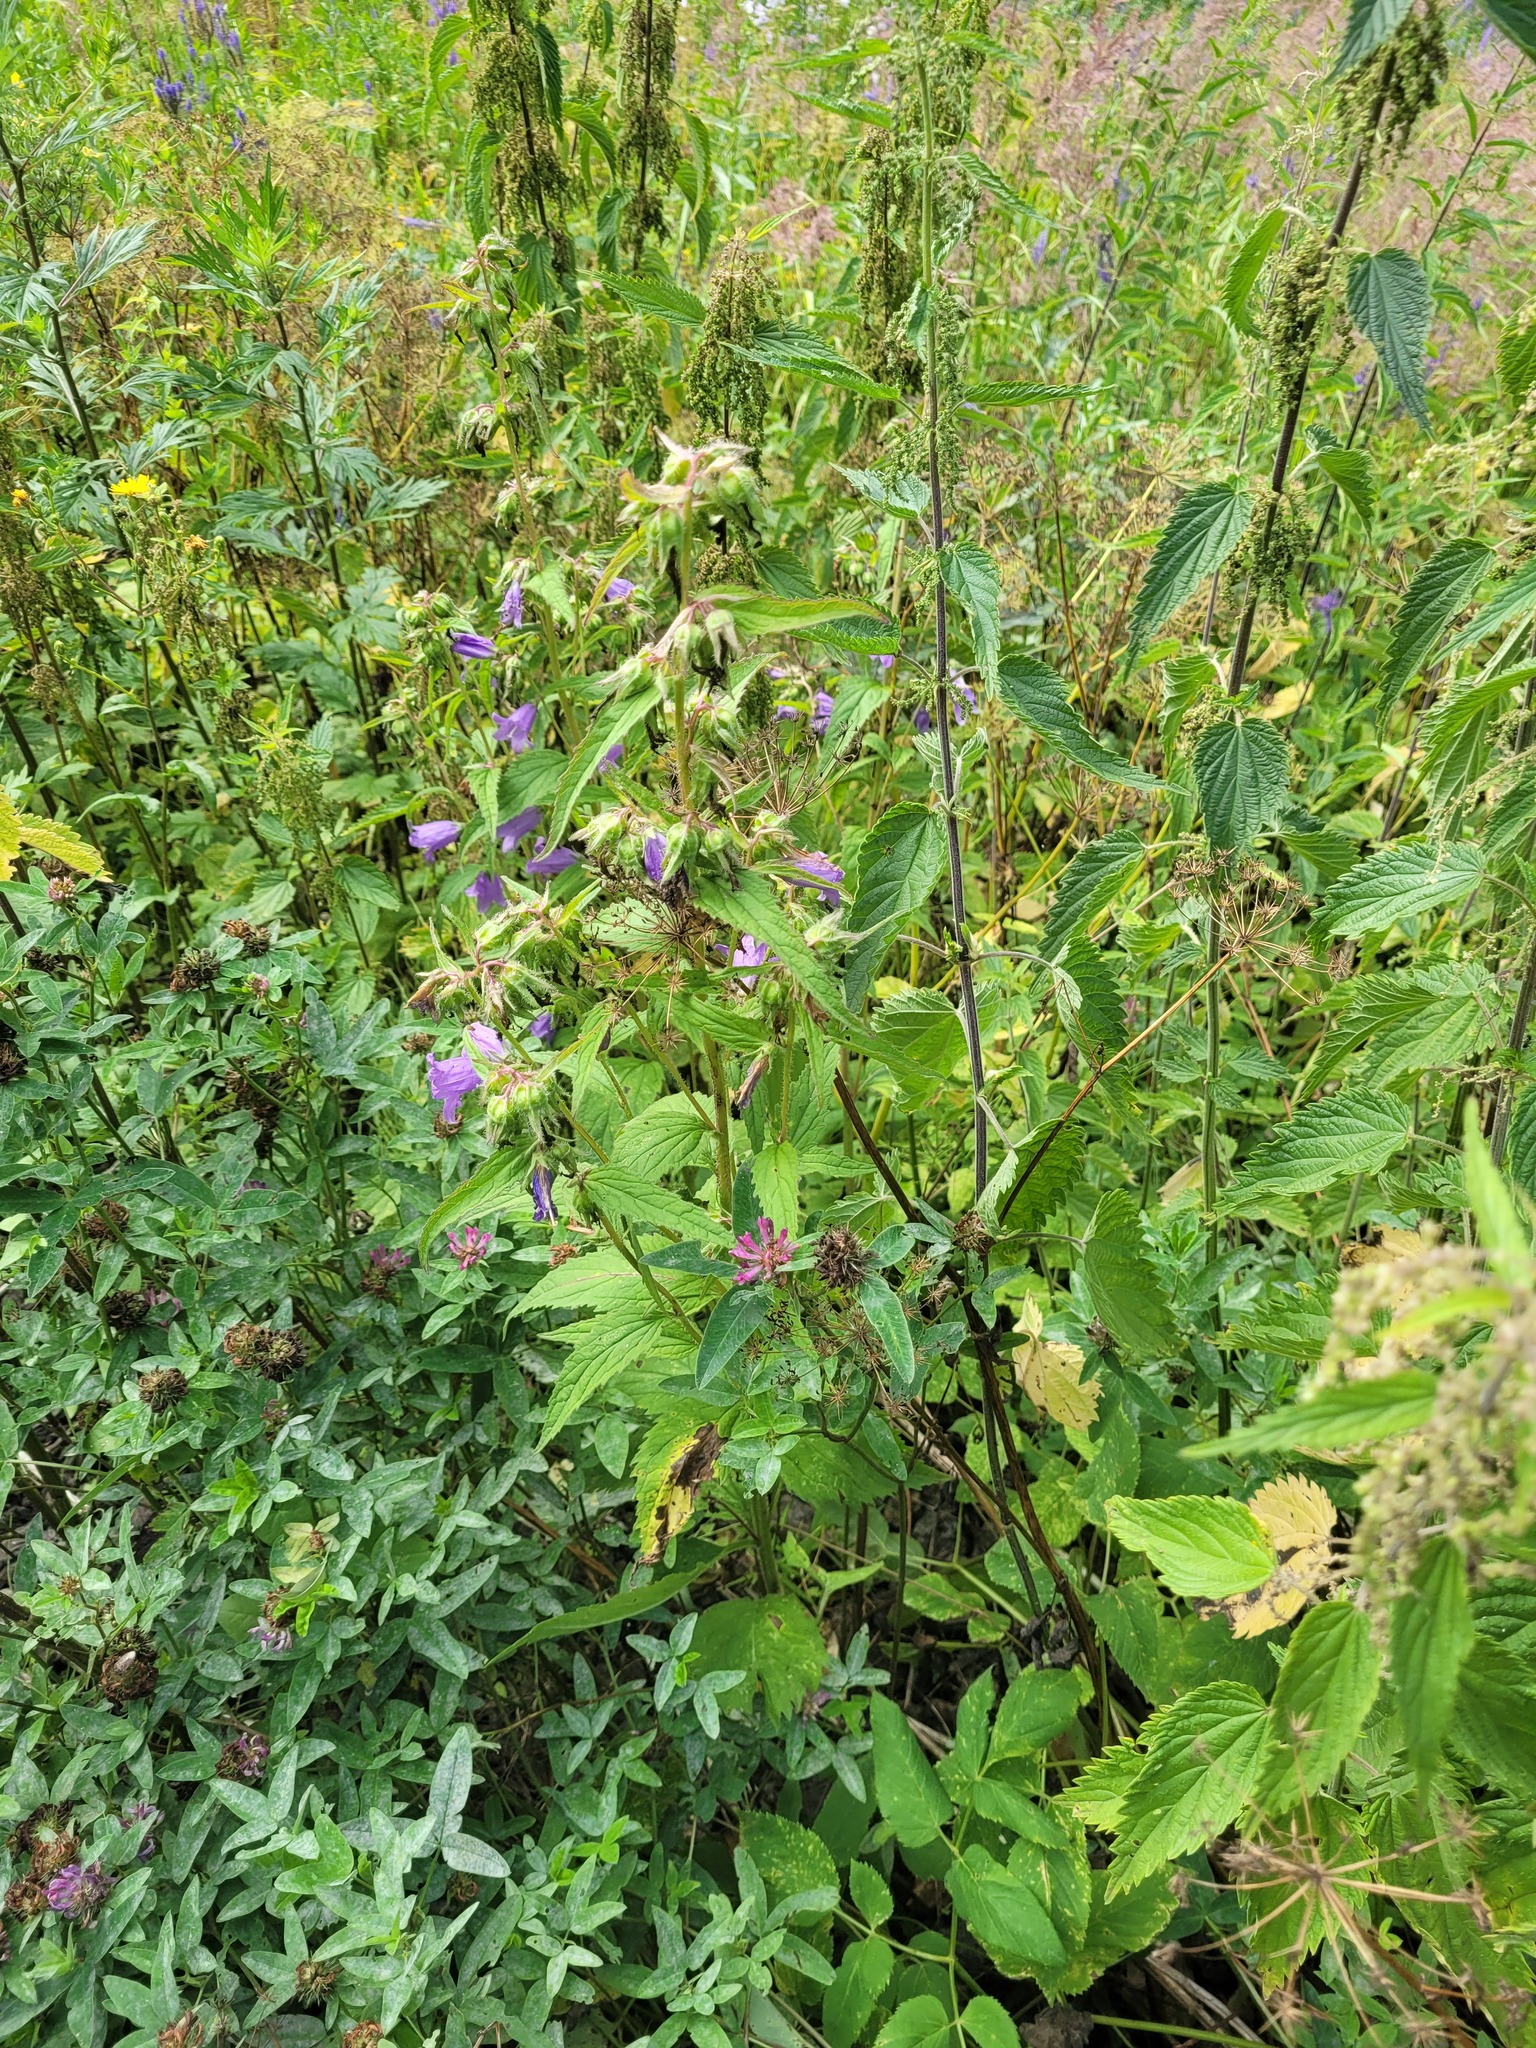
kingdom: Plantae
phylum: Tracheophyta
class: Magnoliopsida
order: Rosales
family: Urticaceae
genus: Urtica
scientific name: Urtica dioica
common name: Common nettle
